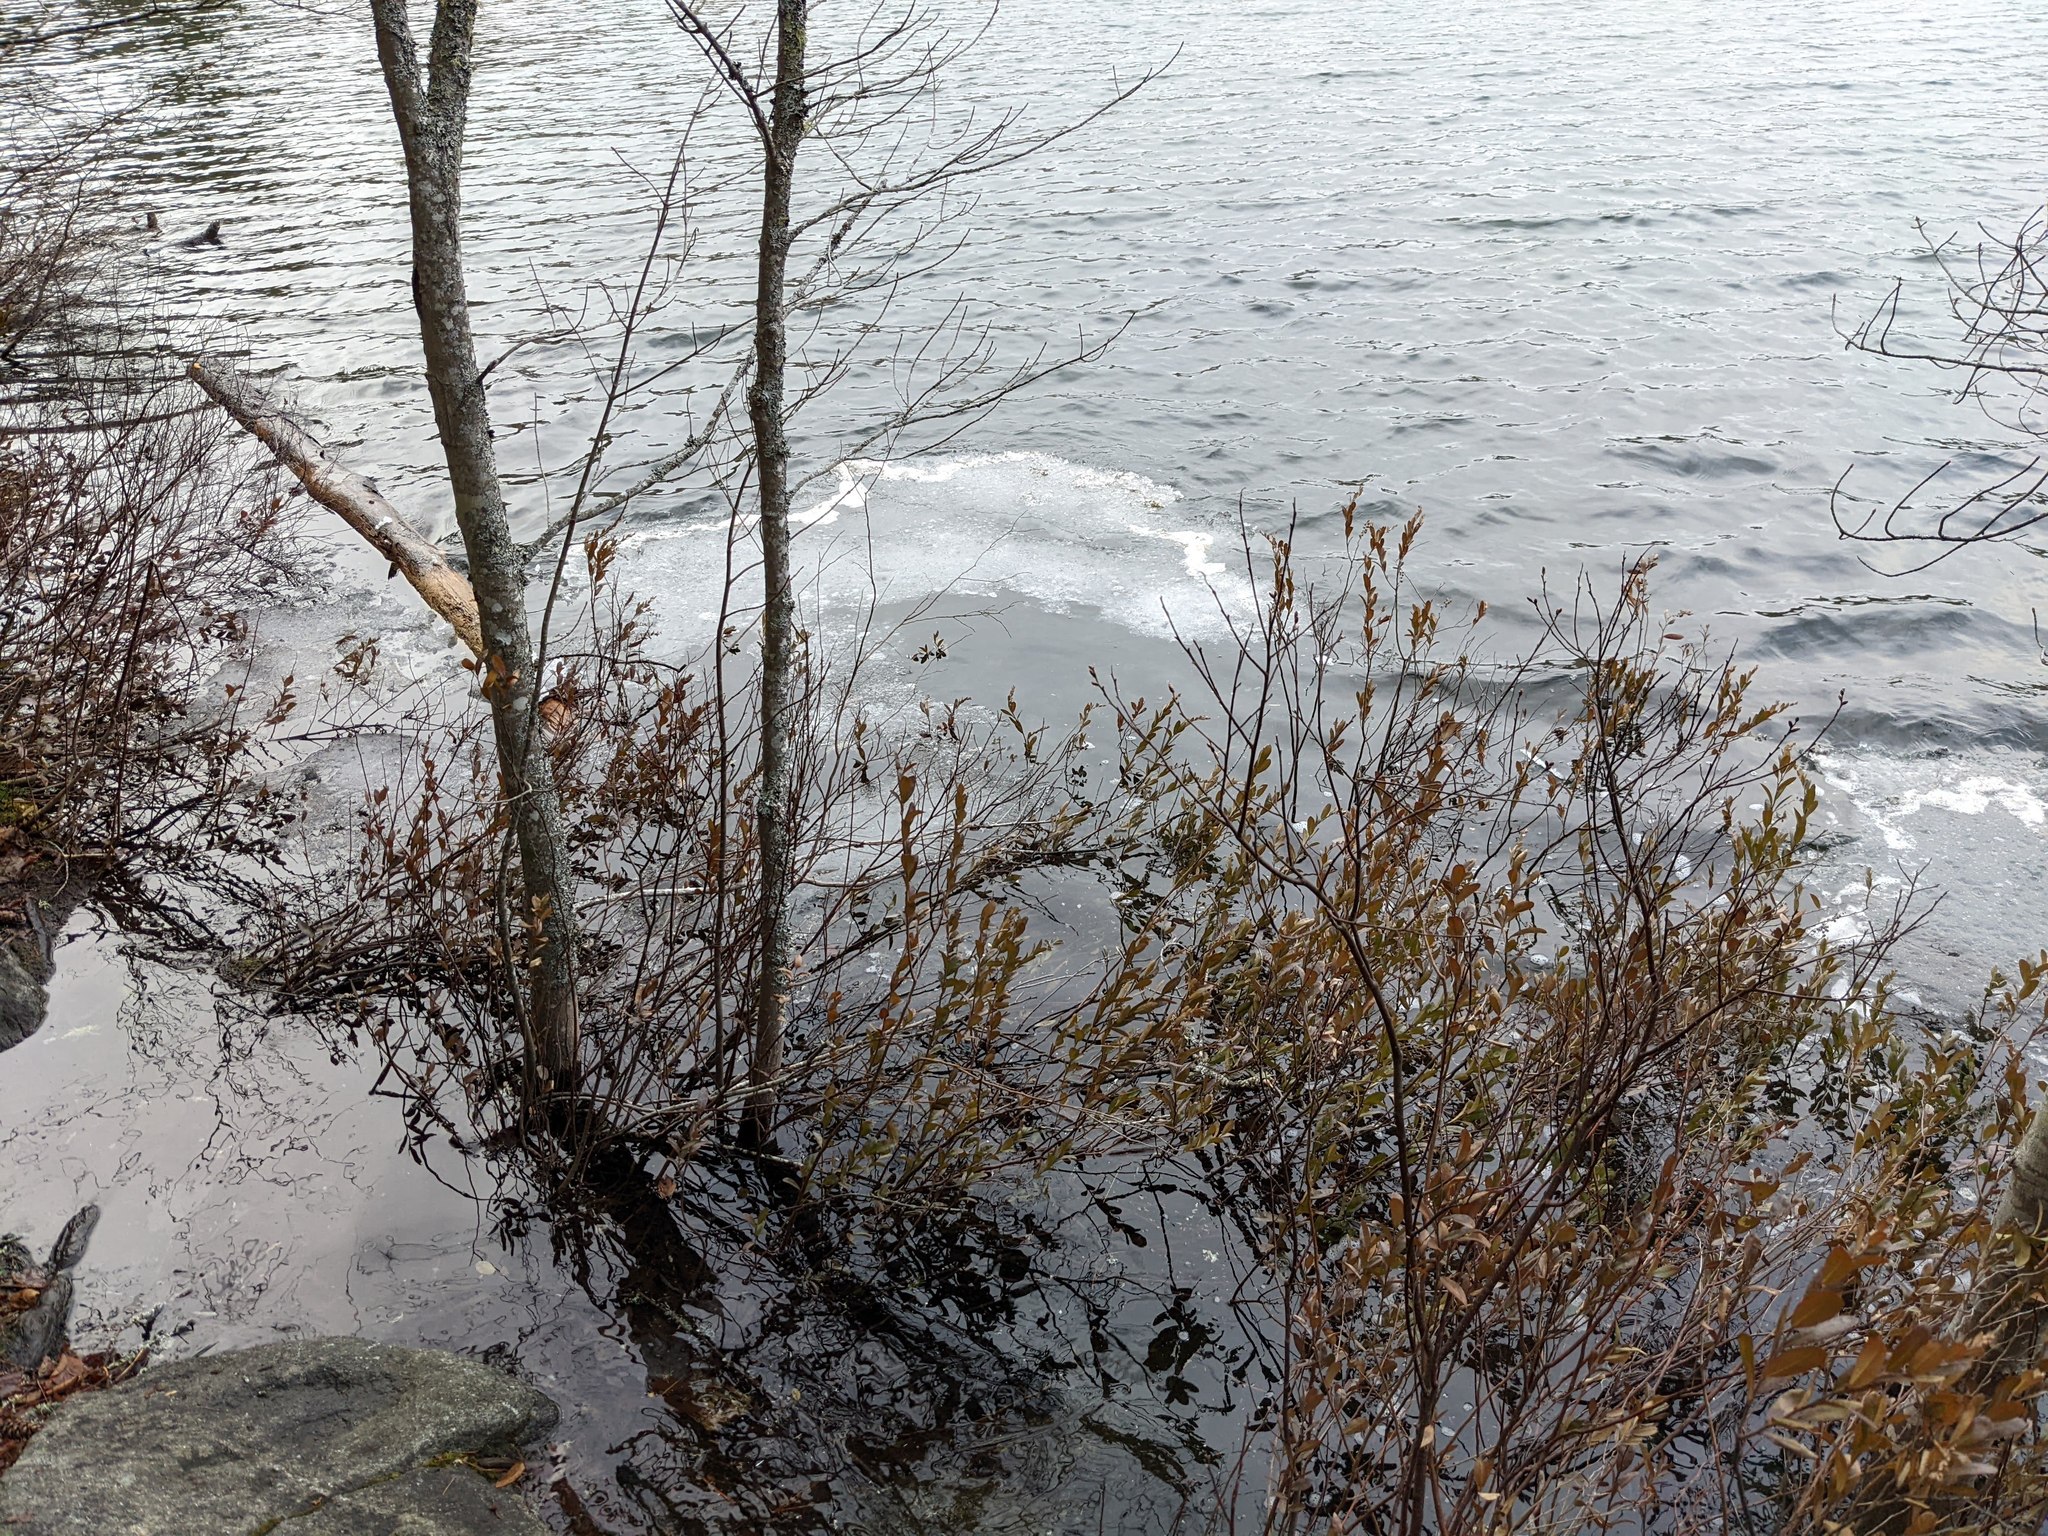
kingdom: Plantae
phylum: Tracheophyta
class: Magnoliopsida
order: Ericales
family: Ericaceae
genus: Chamaedaphne
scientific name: Chamaedaphne calyculata
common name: Leatherleaf
